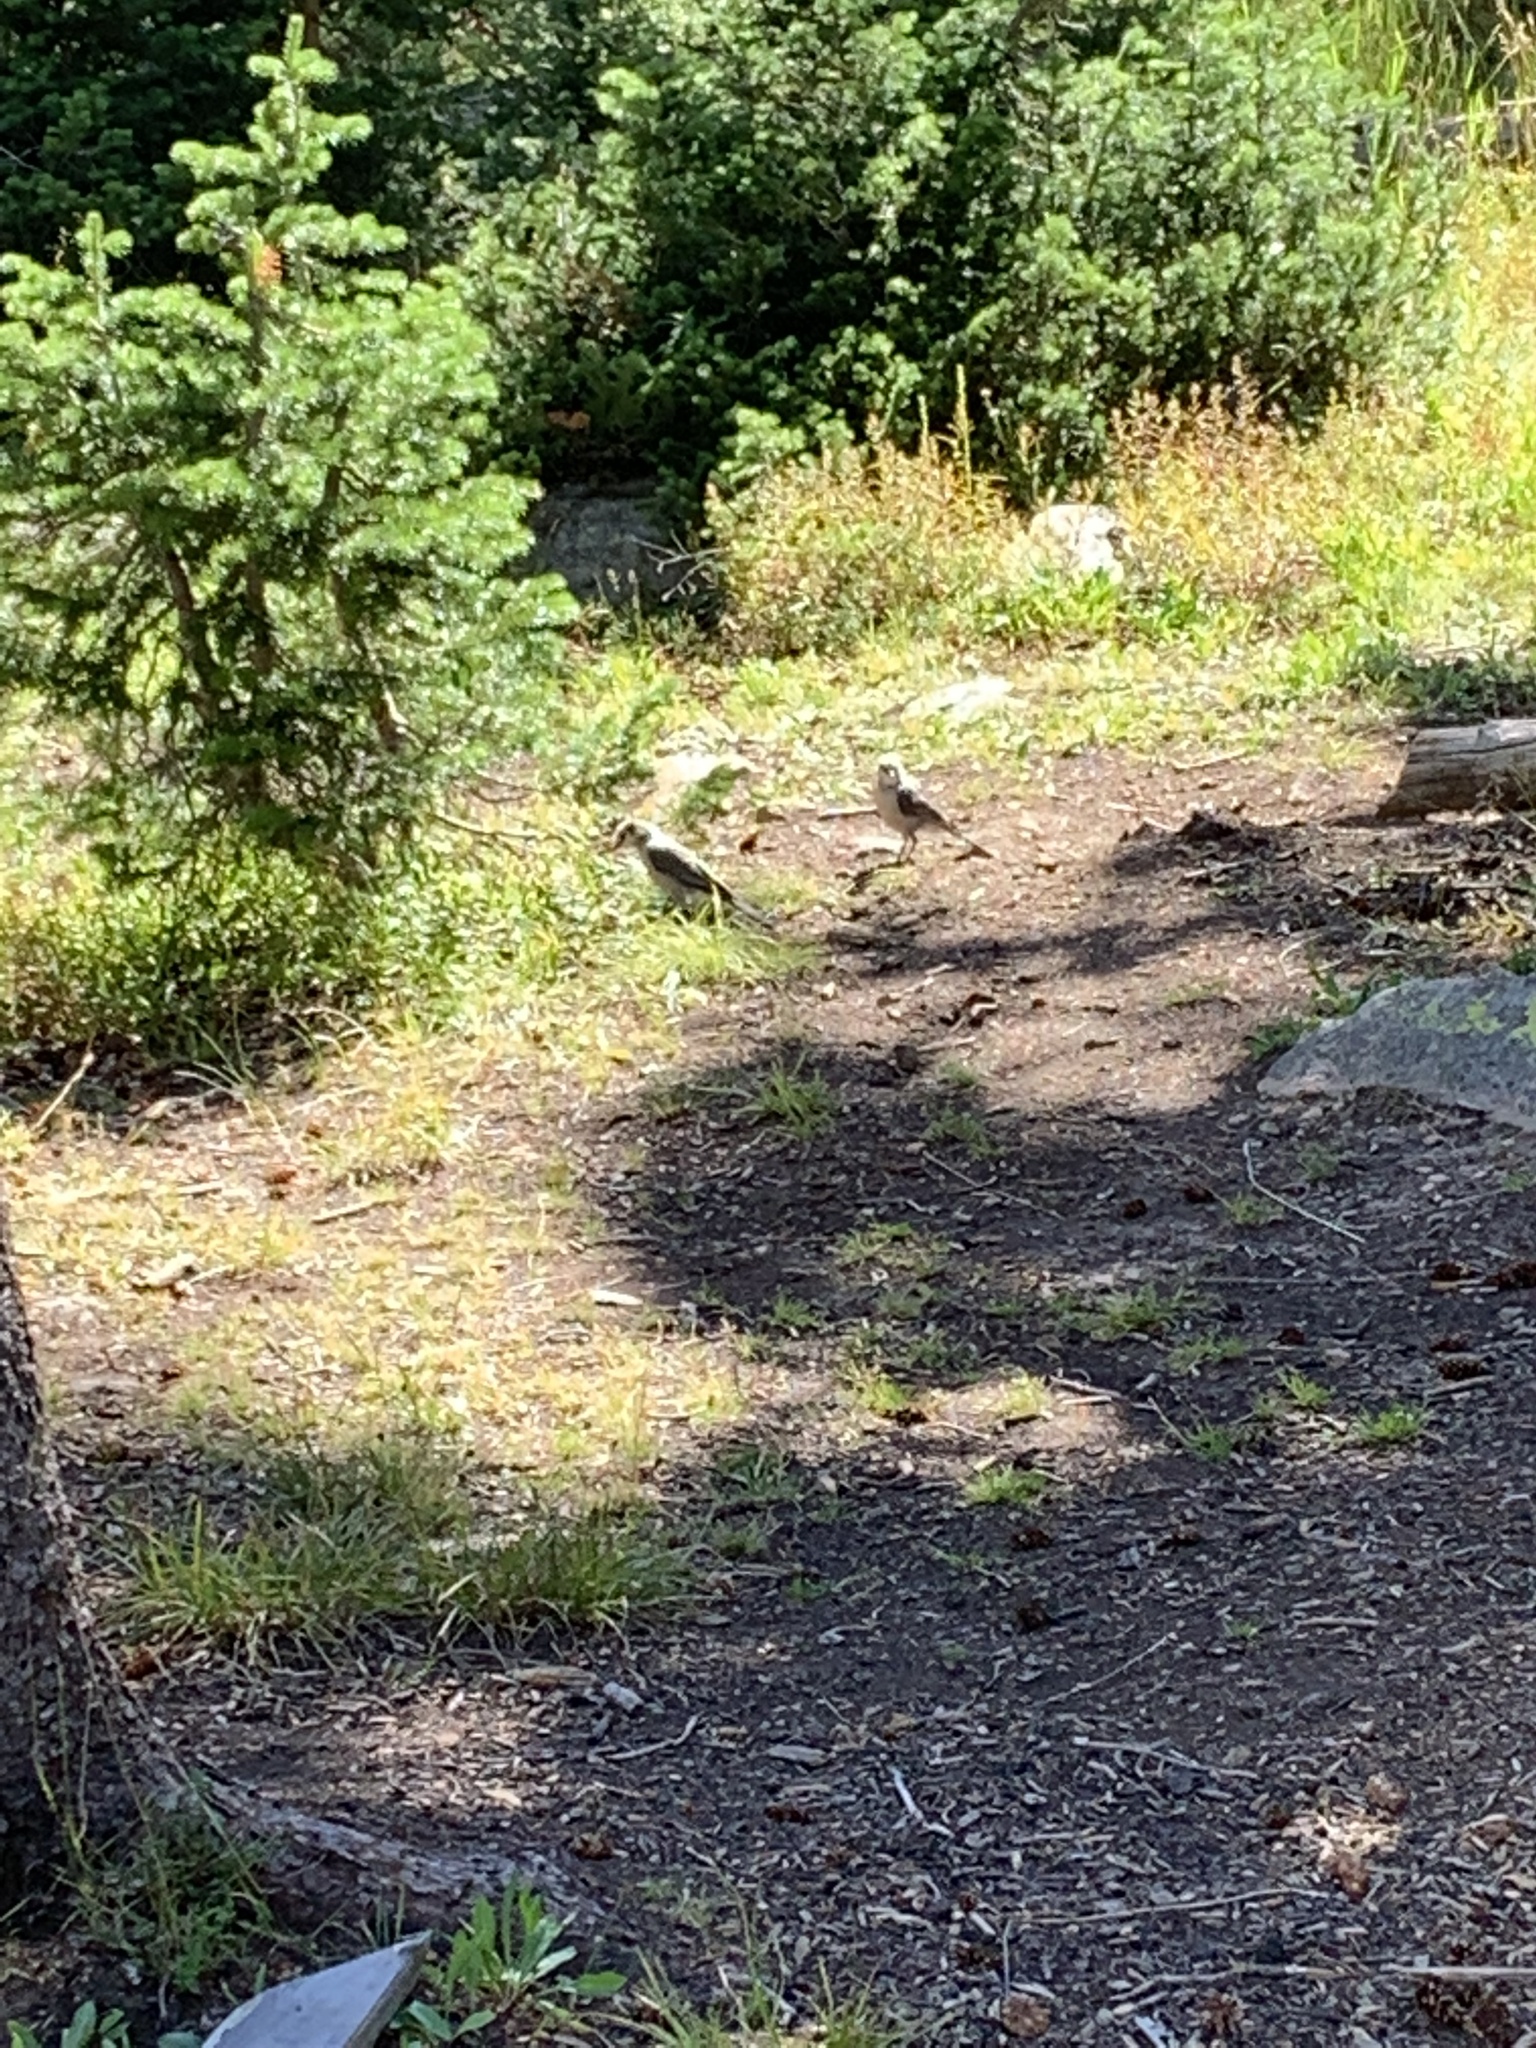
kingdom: Animalia
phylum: Chordata
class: Aves
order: Passeriformes
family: Corvidae
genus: Perisoreus
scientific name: Perisoreus canadensis
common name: Gray jay
